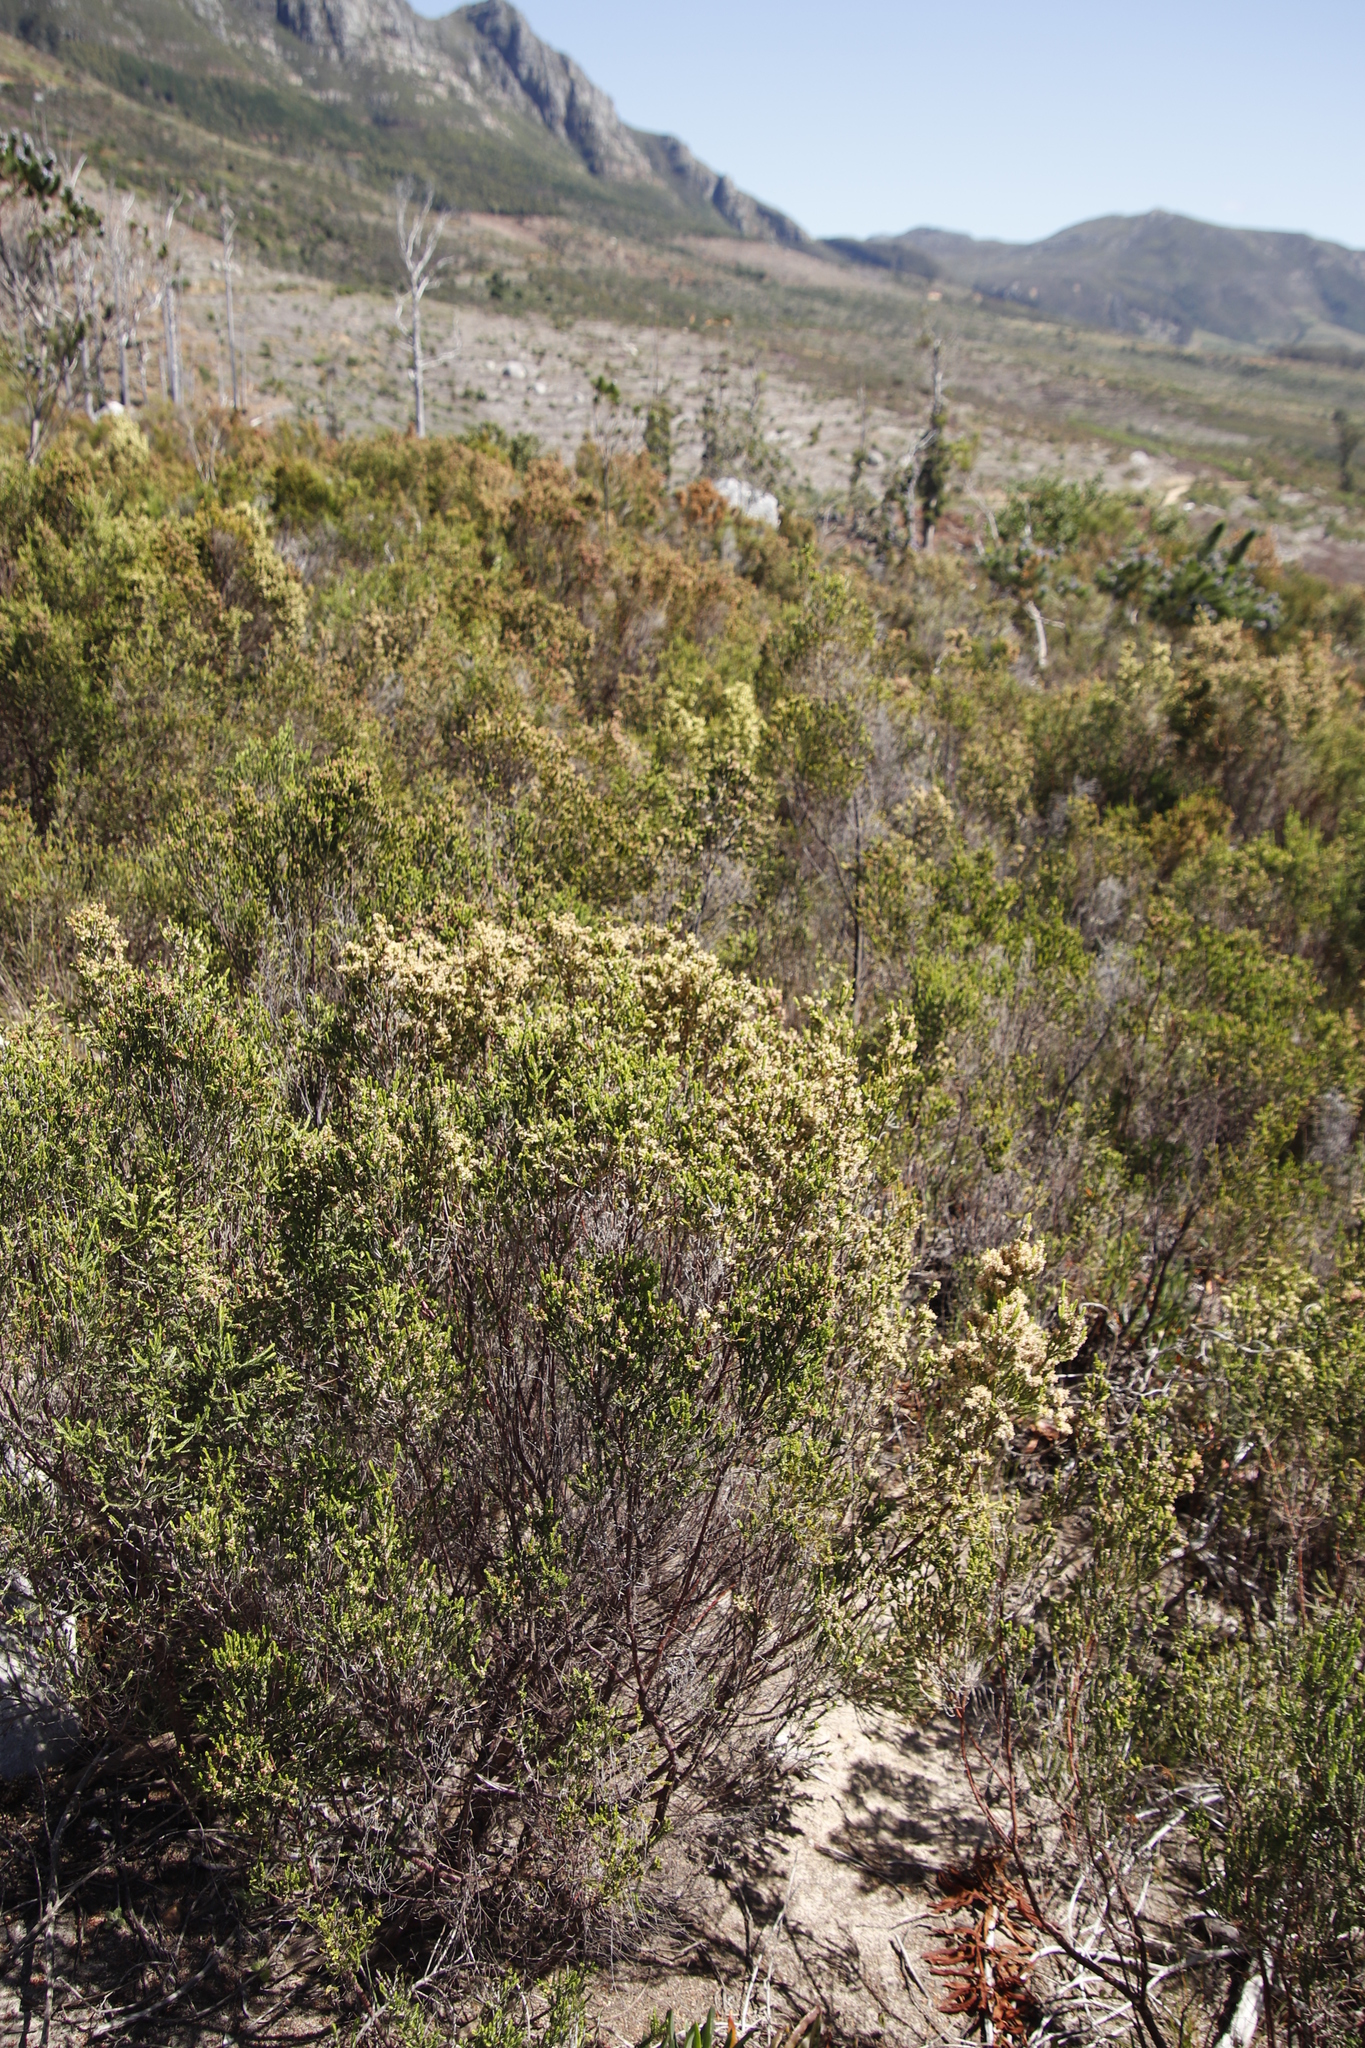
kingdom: Plantae
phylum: Tracheophyta
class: Magnoliopsida
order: Malvales
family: Thymelaeaceae
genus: Passerina
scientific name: Passerina corymbosa
